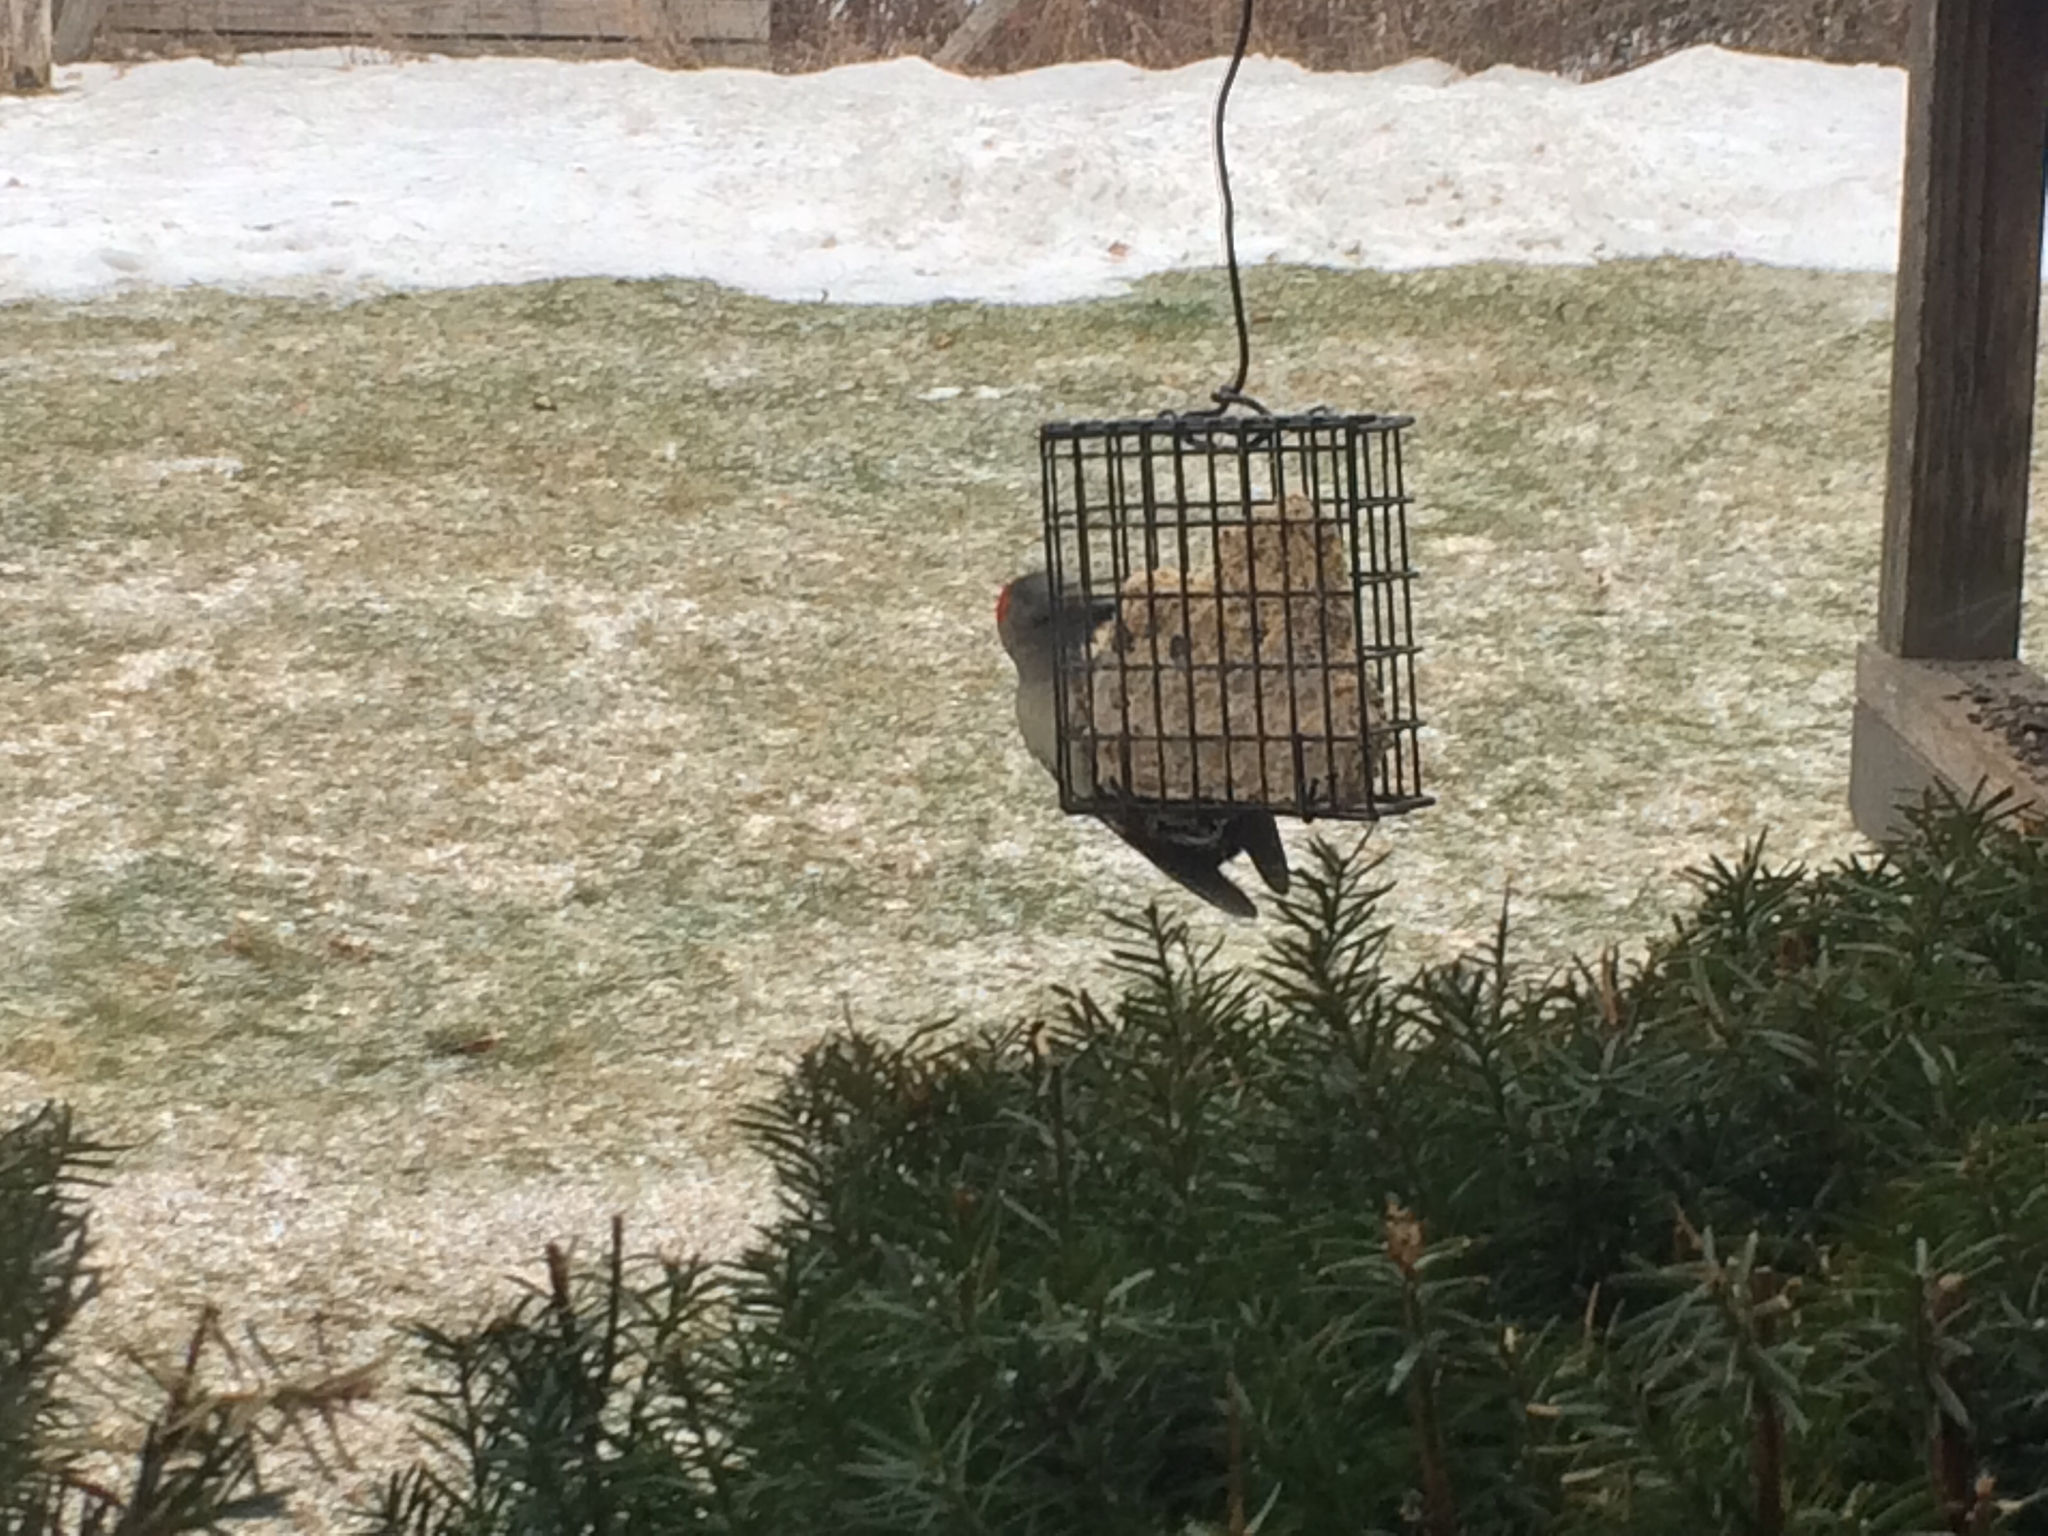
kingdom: Animalia
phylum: Chordata
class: Aves
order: Piciformes
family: Picidae
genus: Melanerpes
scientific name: Melanerpes carolinus
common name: Red-bellied woodpecker
